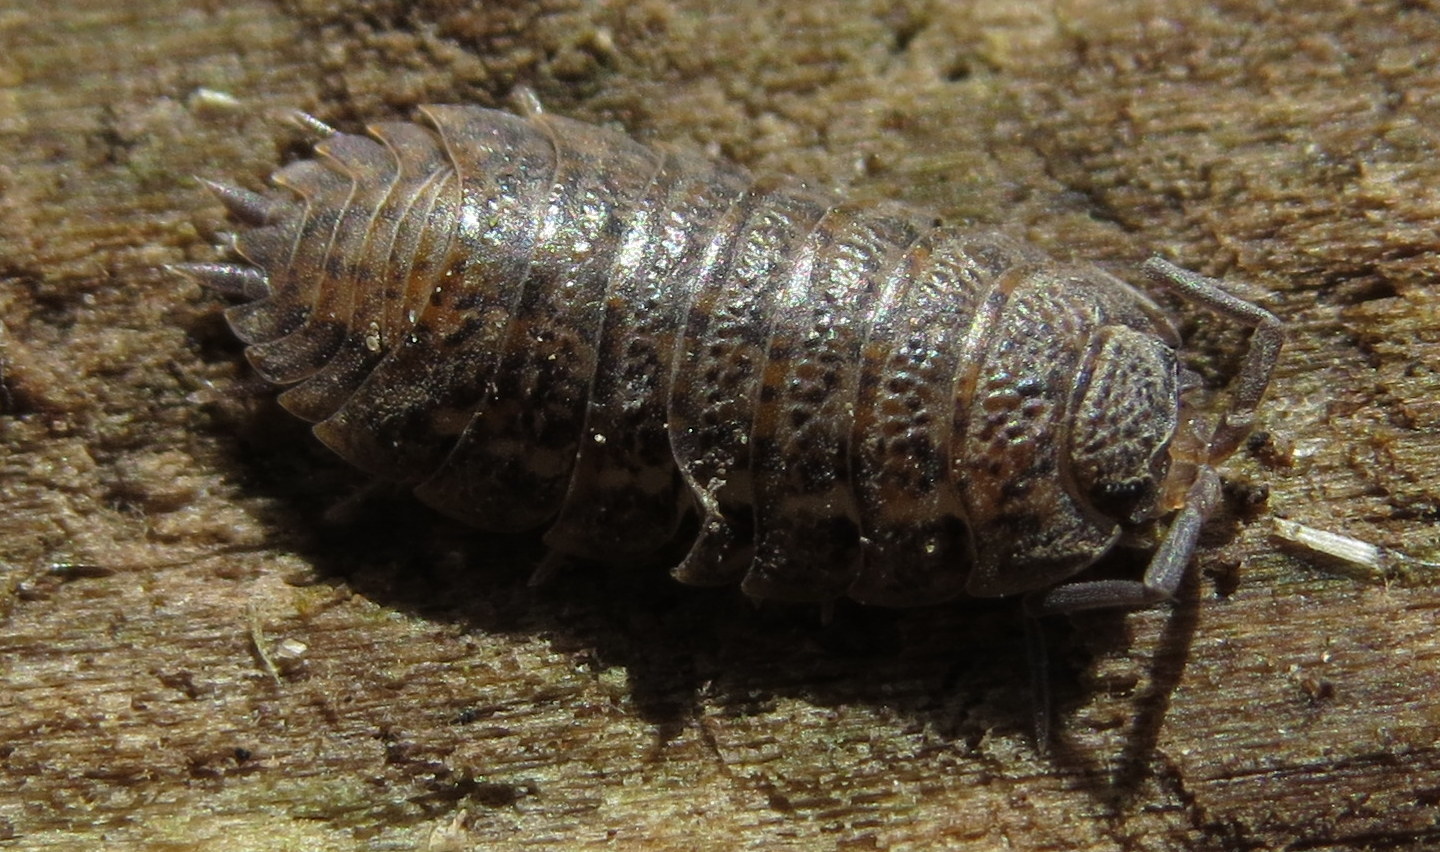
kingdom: Animalia
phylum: Arthropoda
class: Malacostraca
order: Isopoda
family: Trachelipodidae
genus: Trachelipus
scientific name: Trachelipus rathkii
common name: Isopod
